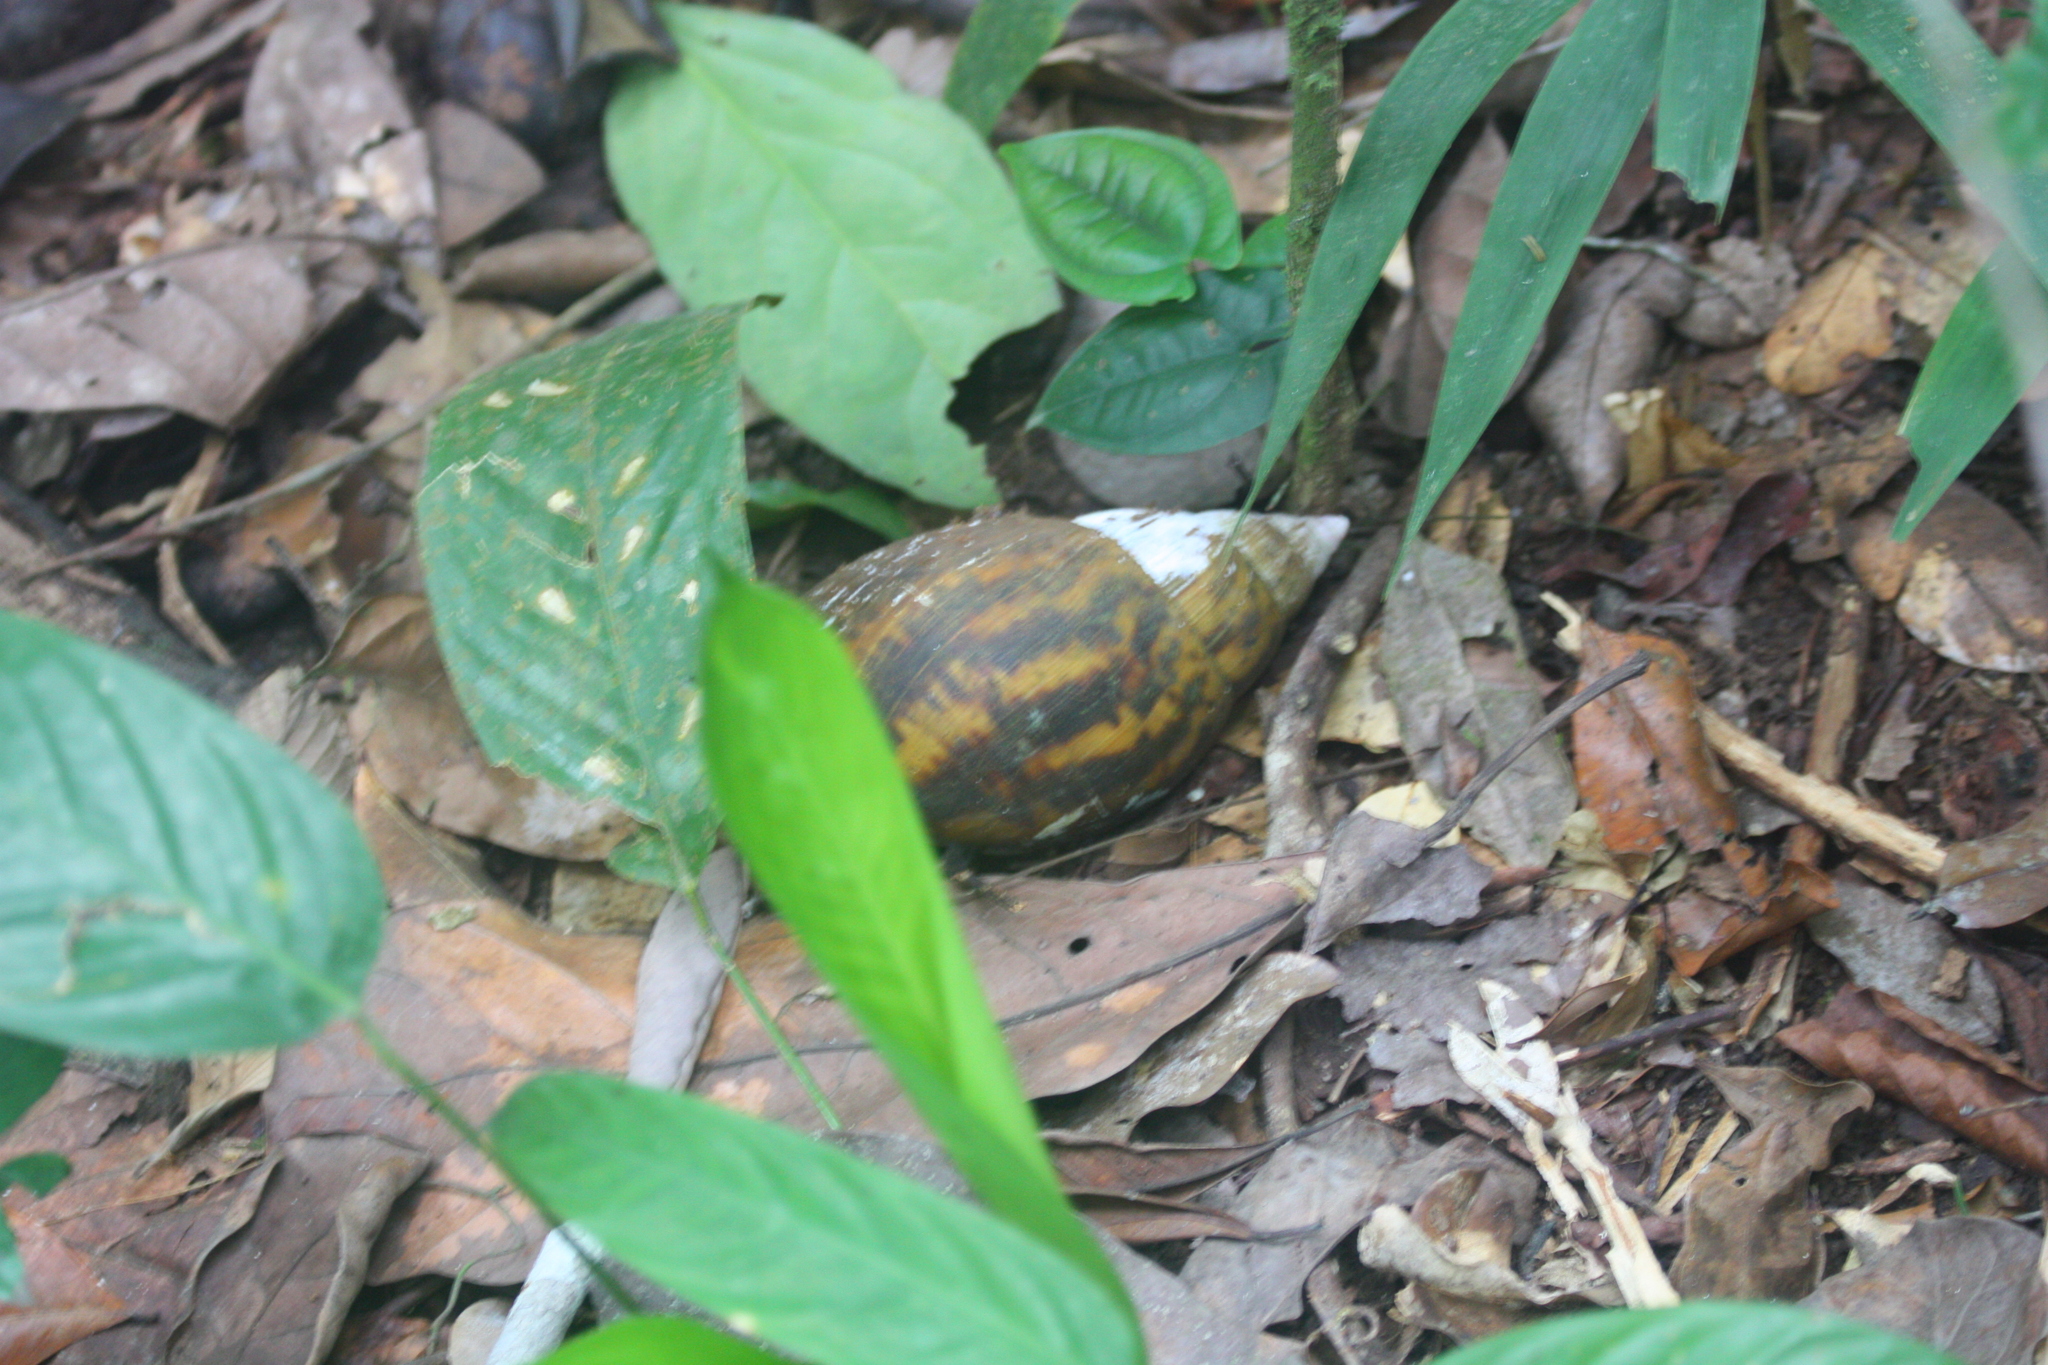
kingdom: Animalia
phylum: Mollusca
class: Gastropoda
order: Stylommatophora
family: Achatinidae
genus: Achatina
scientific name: Achatina achatina
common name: Common african snail
